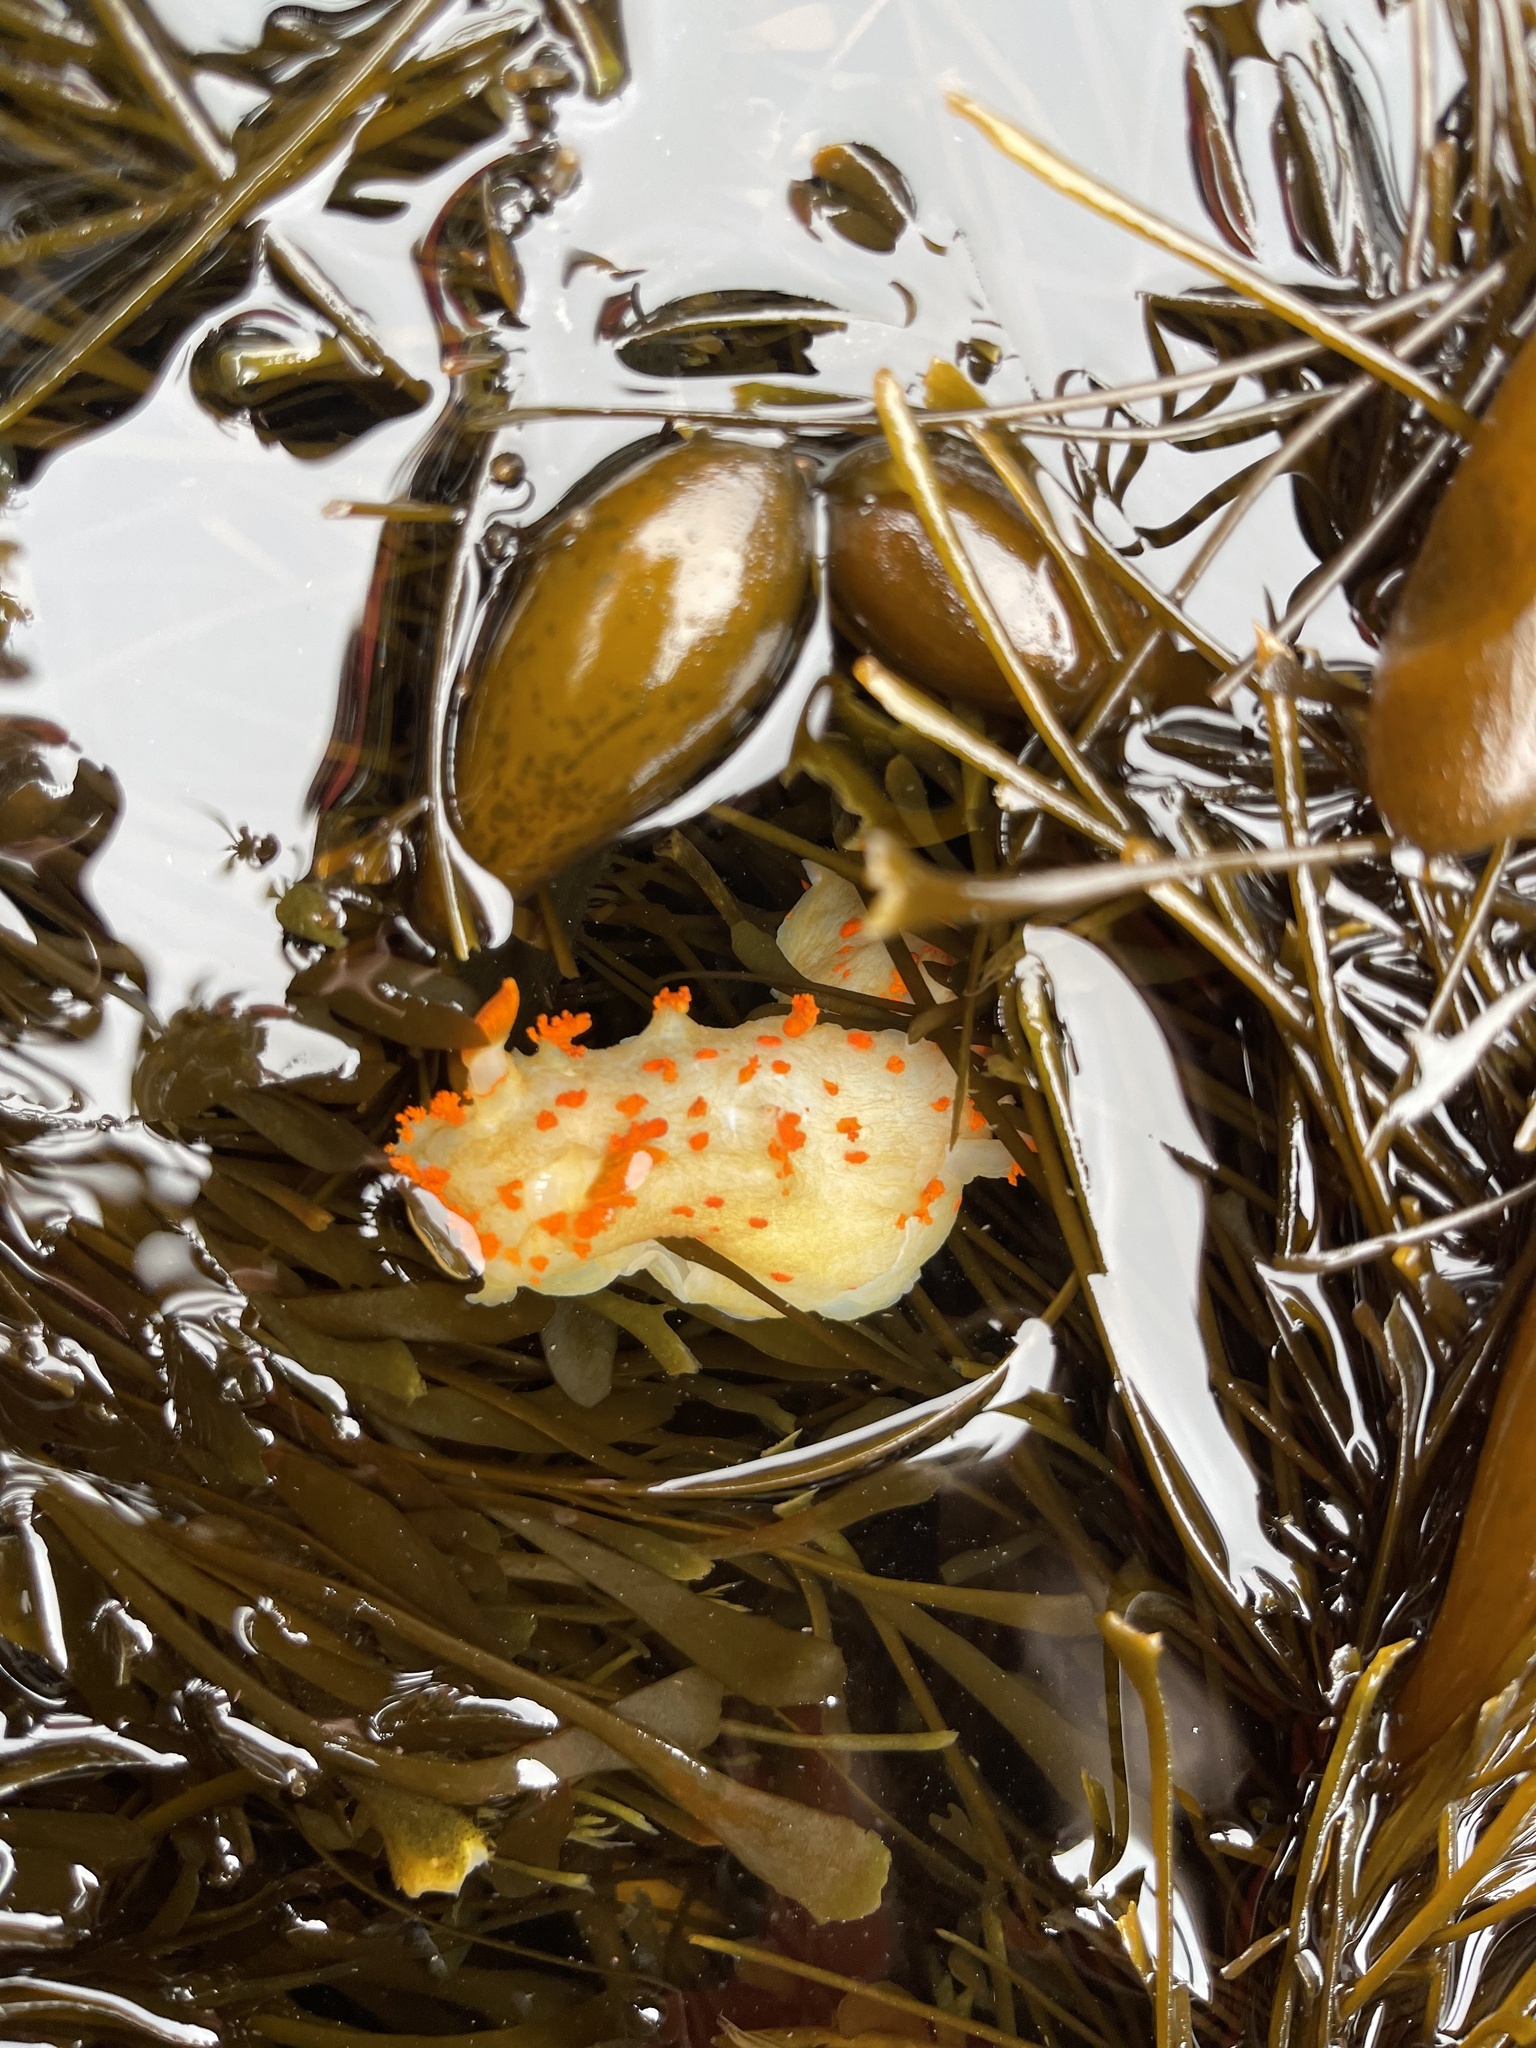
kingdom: Animalia
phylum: Mollusca
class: Gastropoda
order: Nudibranchia
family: Polyceridae
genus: Triopha
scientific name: Triopha modesta
